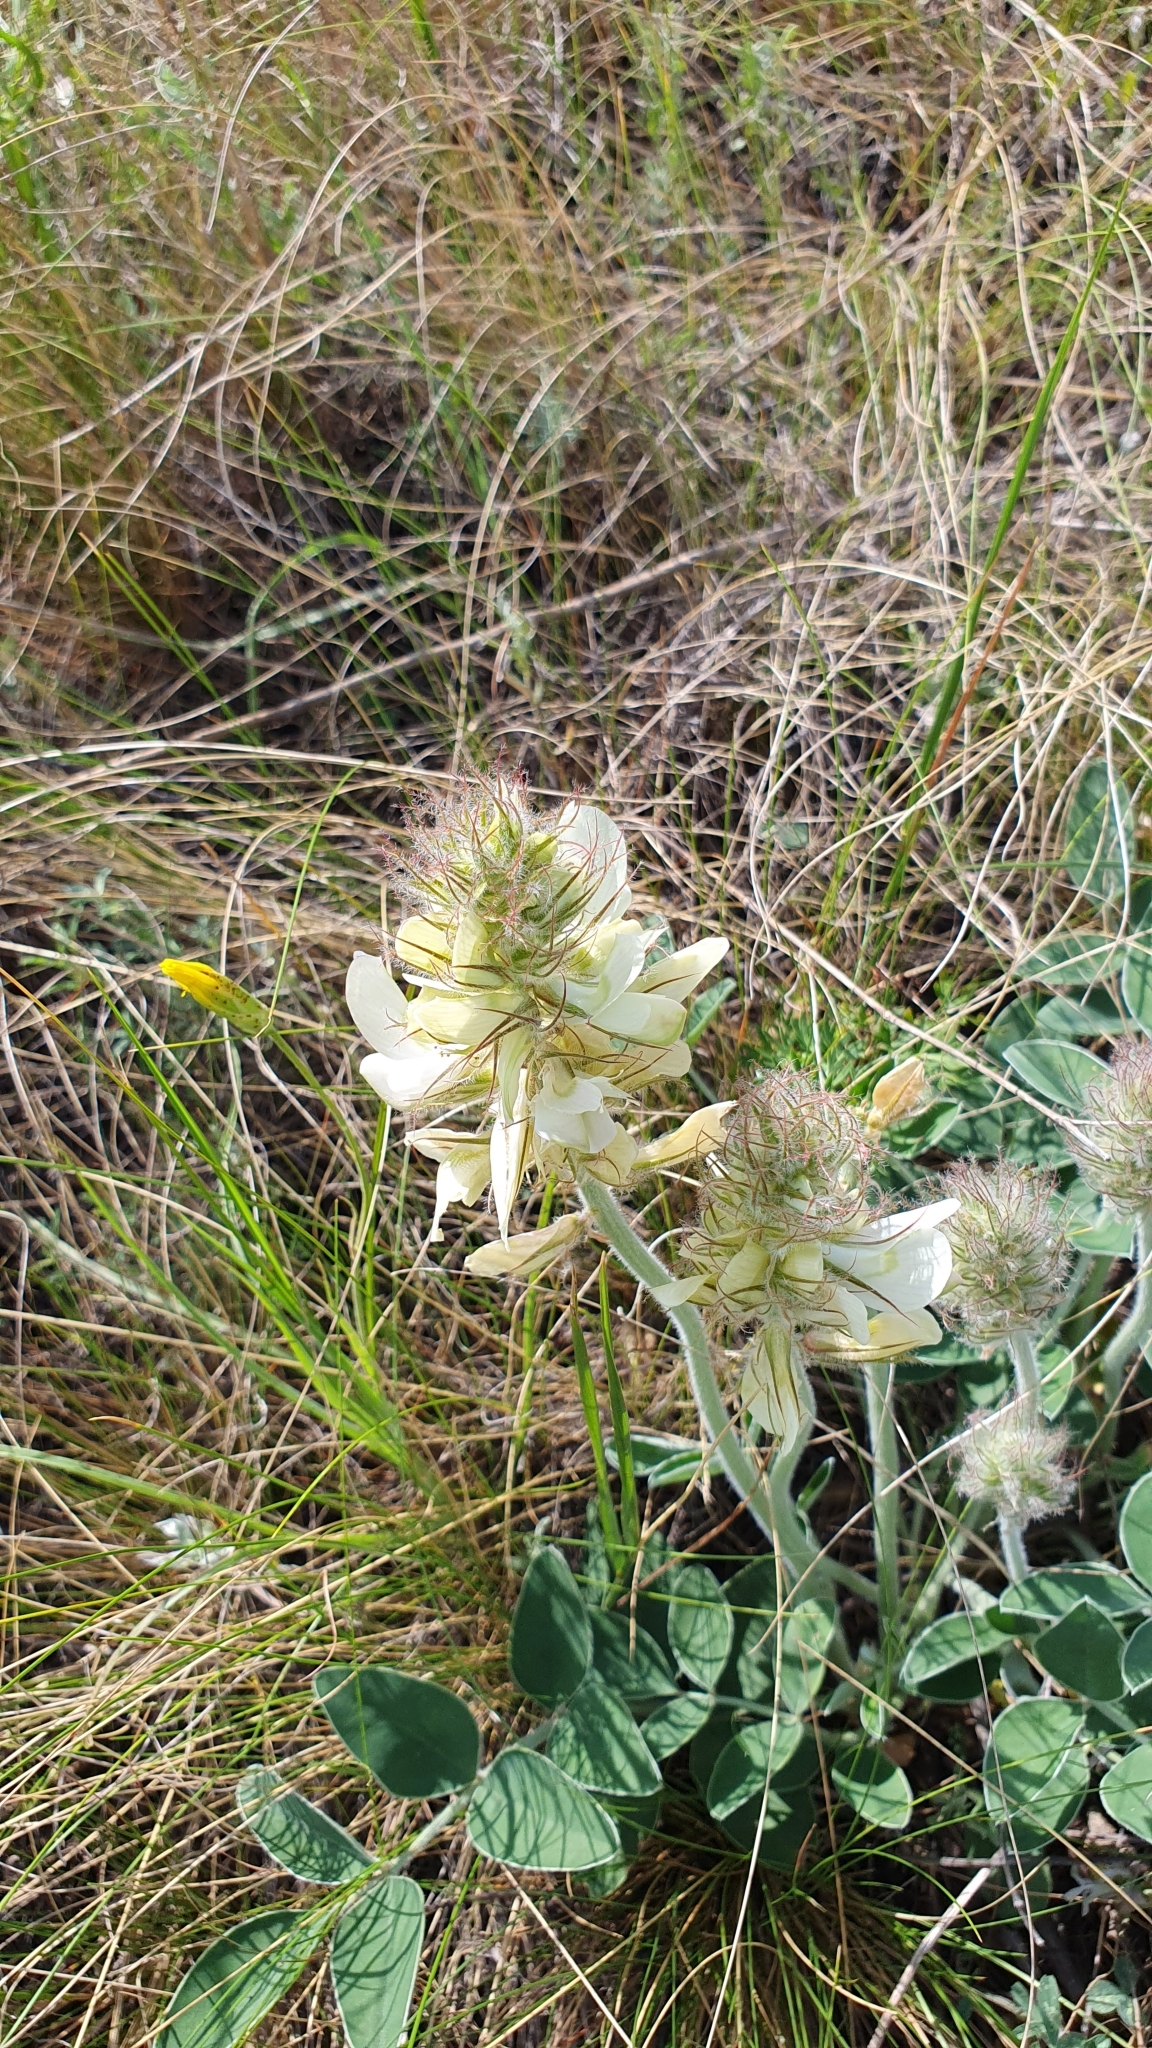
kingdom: Plantae
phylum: Tracheophyta
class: Magnoliopsida
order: Fabales
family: Fabaceae
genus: Hedysarum
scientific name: Hedysarum grandiflorum
